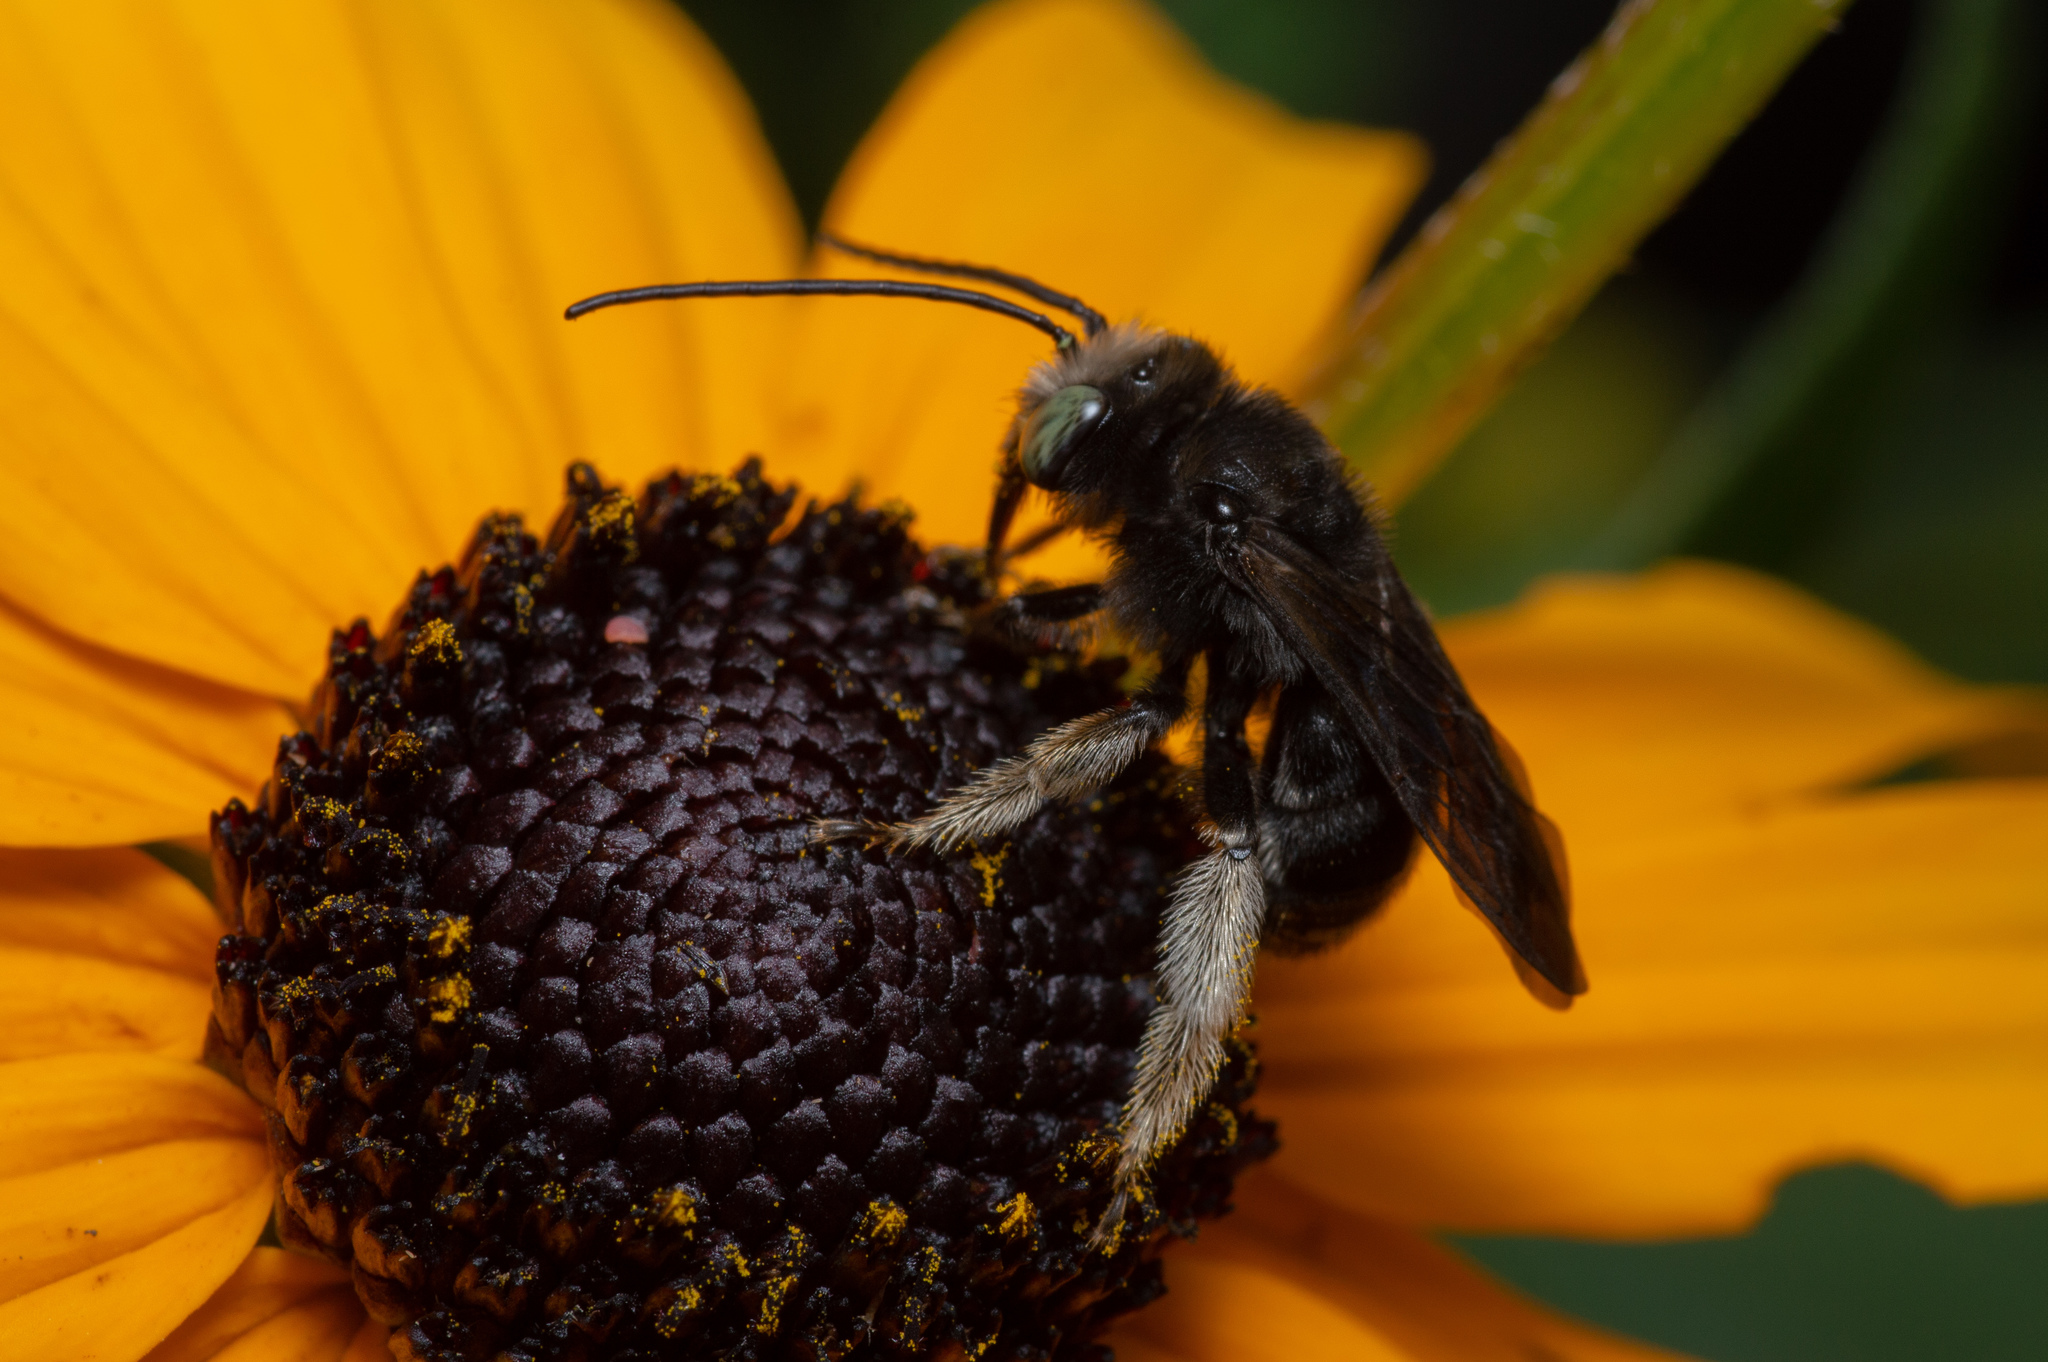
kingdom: Animalia
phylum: Arthropoda
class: Insecta
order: Hymenoptera
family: Apidae
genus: Melissodes
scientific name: Melissodes bimaculatus
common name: Two-spotted long-horned bee
